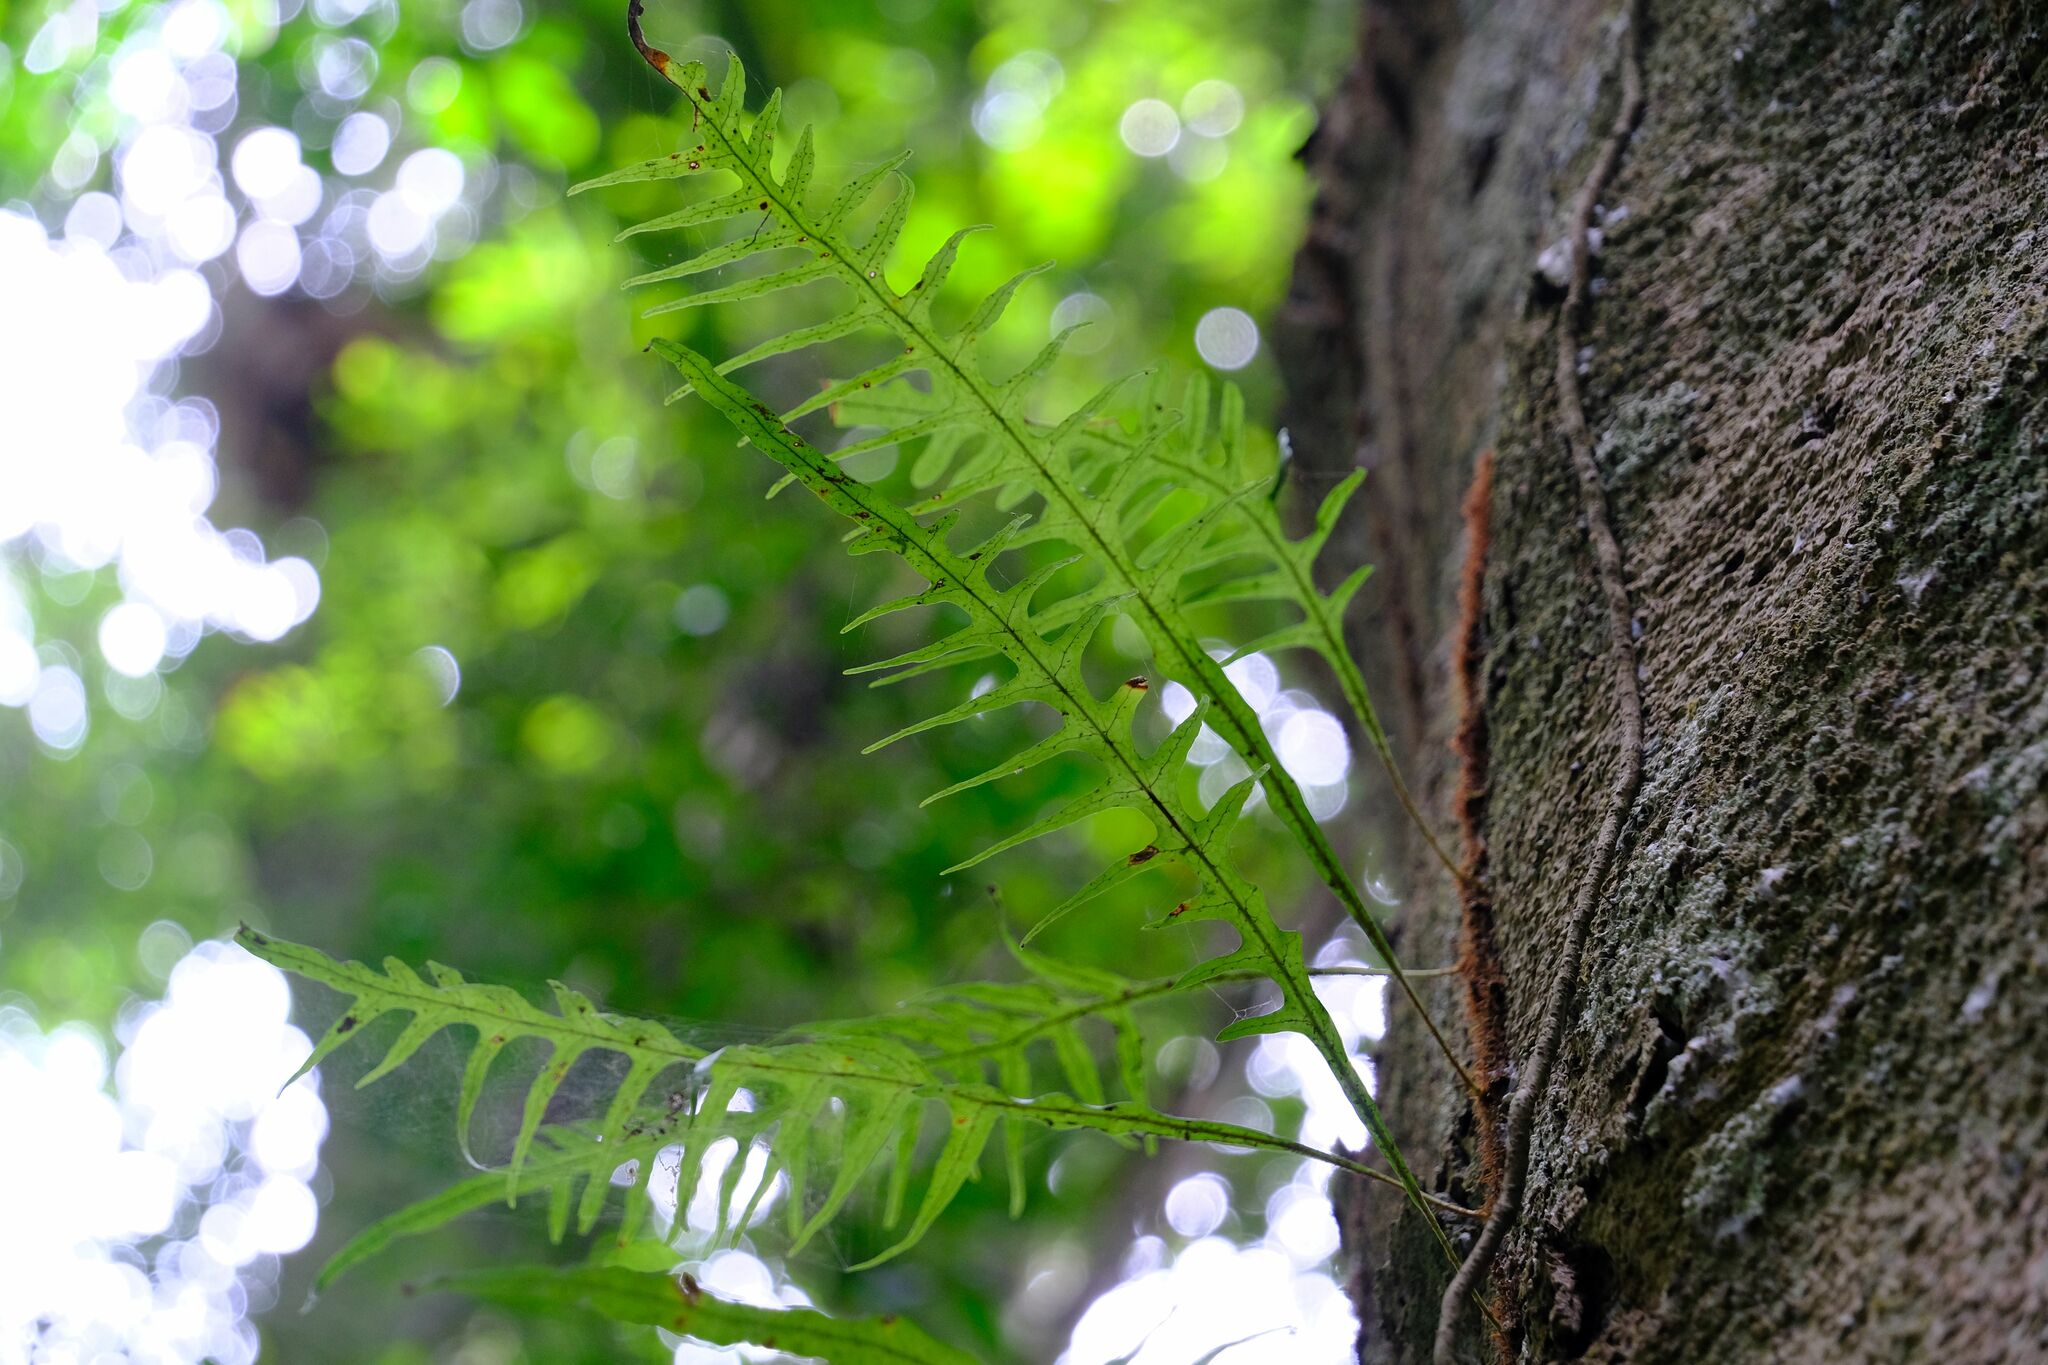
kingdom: Plantae
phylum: Tracheophyta
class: Polypodiopsida
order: Polypodiales
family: Polypodiaceae
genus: Lecanopteris
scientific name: Lecanopteris scandens
